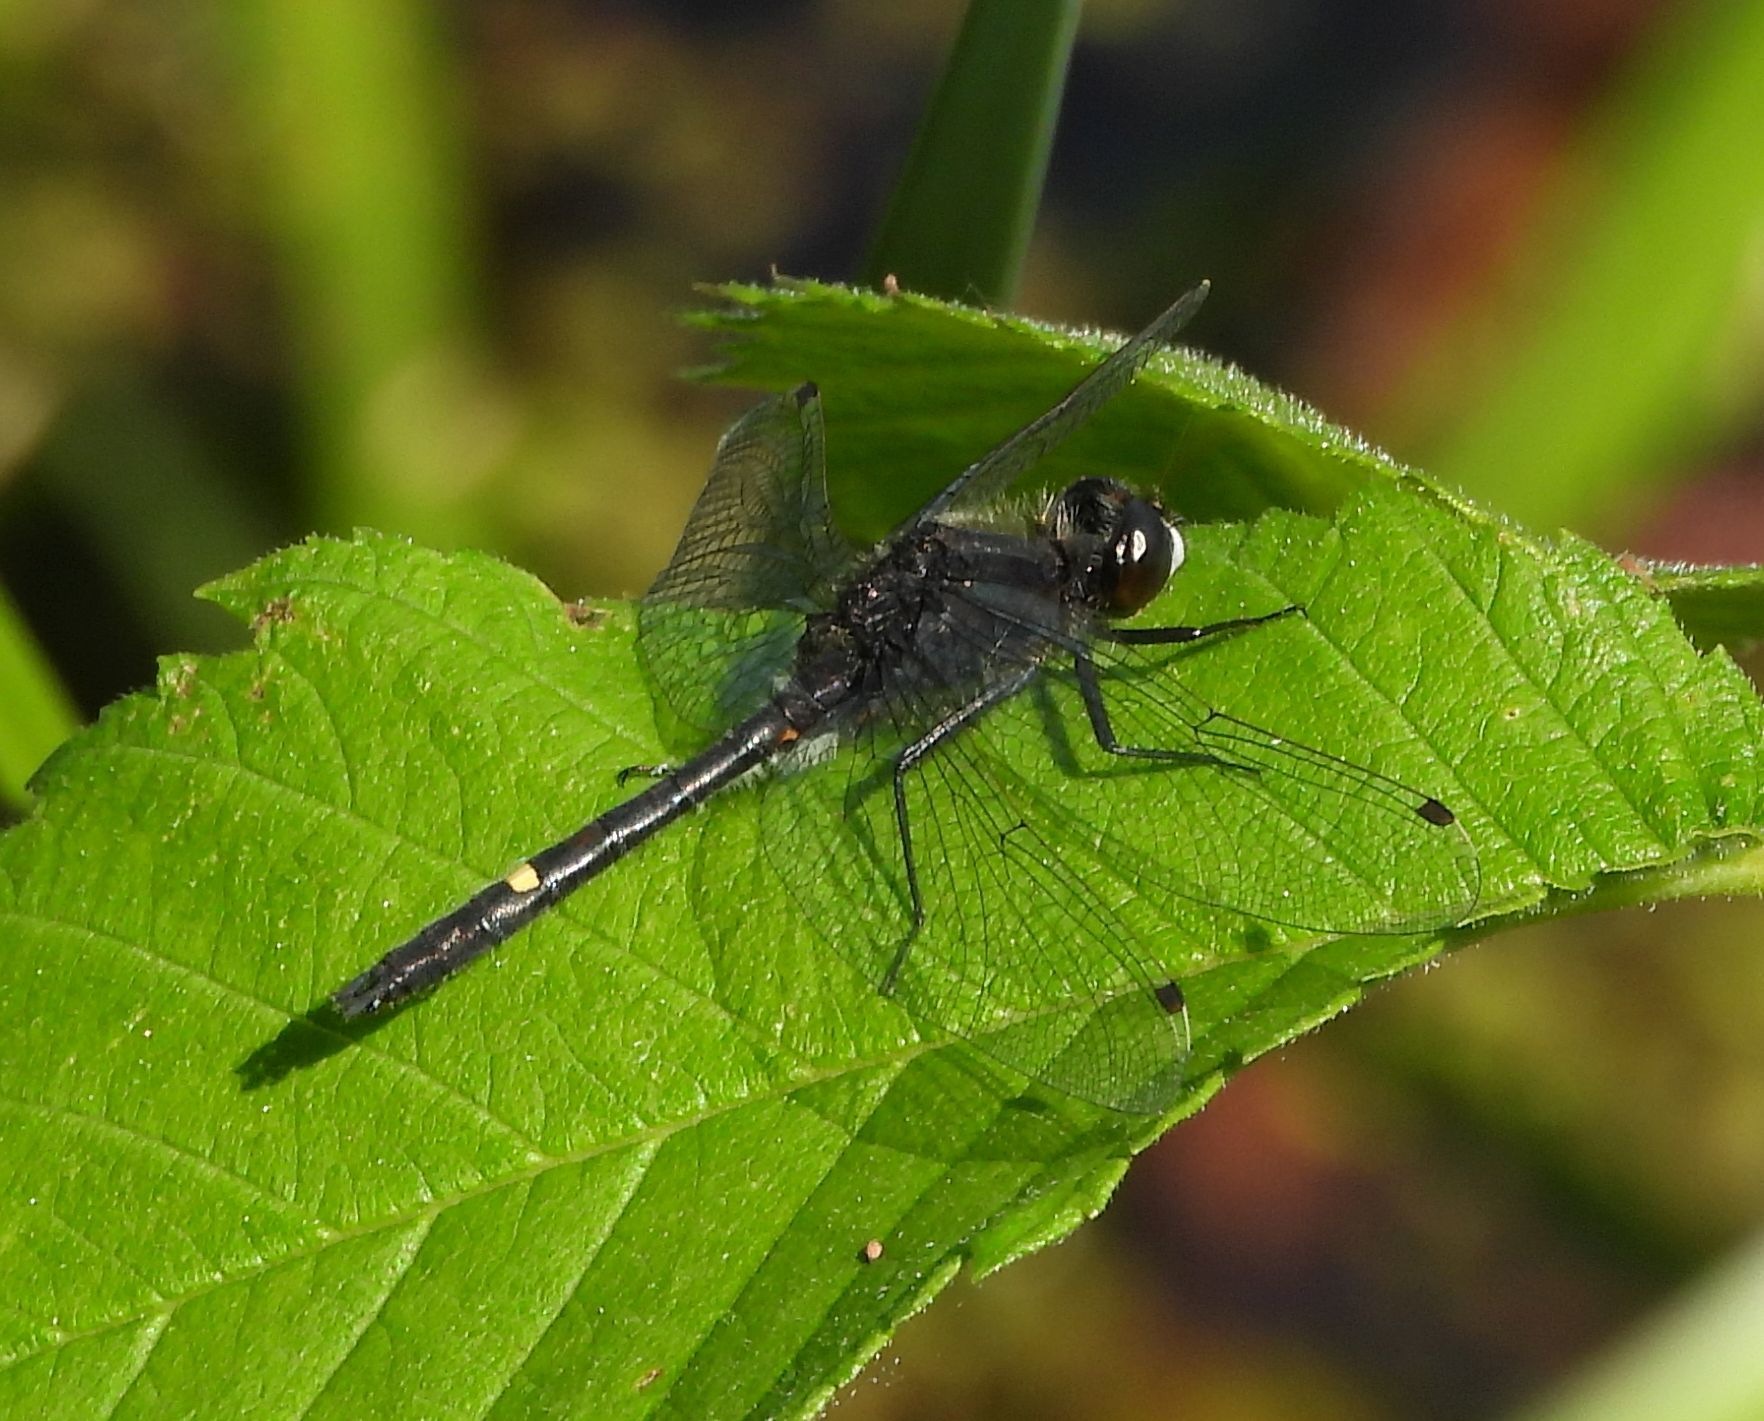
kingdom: Animalia
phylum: Arthropoda
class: Insecta
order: Odonata
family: Libellulidae
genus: Leucorrhinia
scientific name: Leucorrhinia intacta
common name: Dot-tailed whiteface
